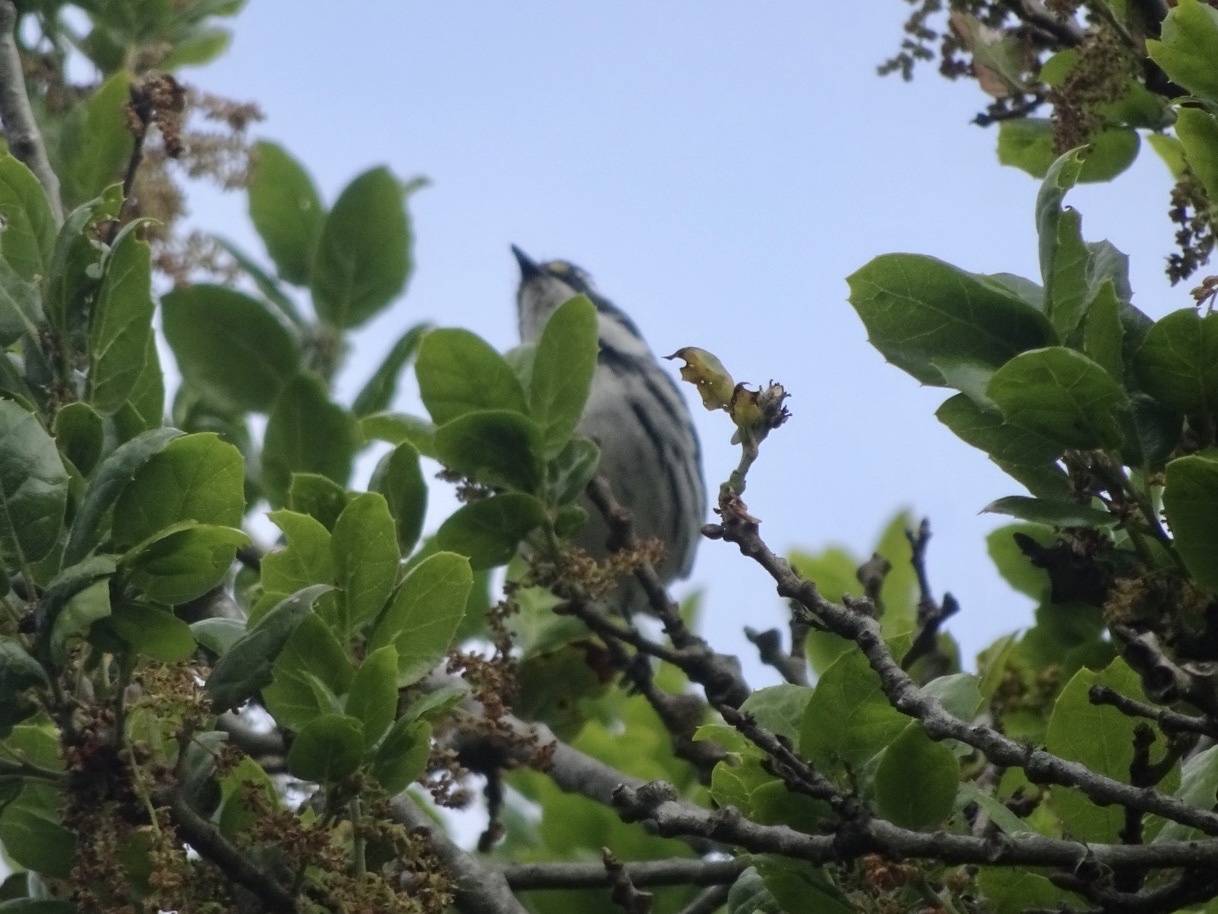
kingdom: Animalia
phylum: Chordata
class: Aves
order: Passeriformes
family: Parulidae
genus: Setophaga
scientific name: Setophaga nigrescens
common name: Black-throated gray warbler
